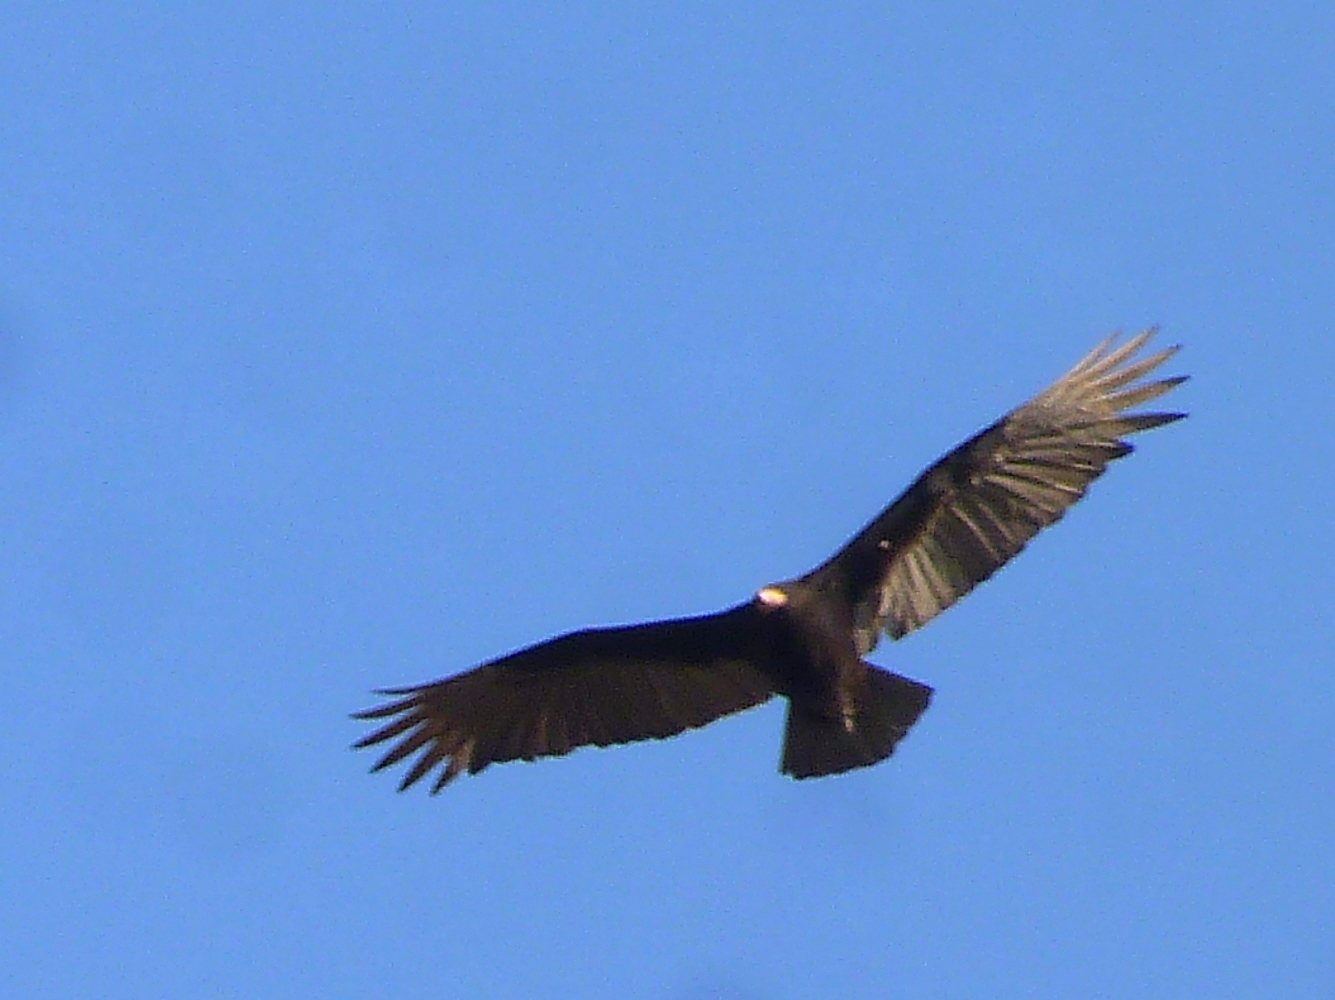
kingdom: Animalia
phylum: Chordata
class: Aves
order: Accipitriformes
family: Cathartidae
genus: Cathartes
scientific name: Cathartes burrovianus
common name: Lesser yellow-headed vulture
